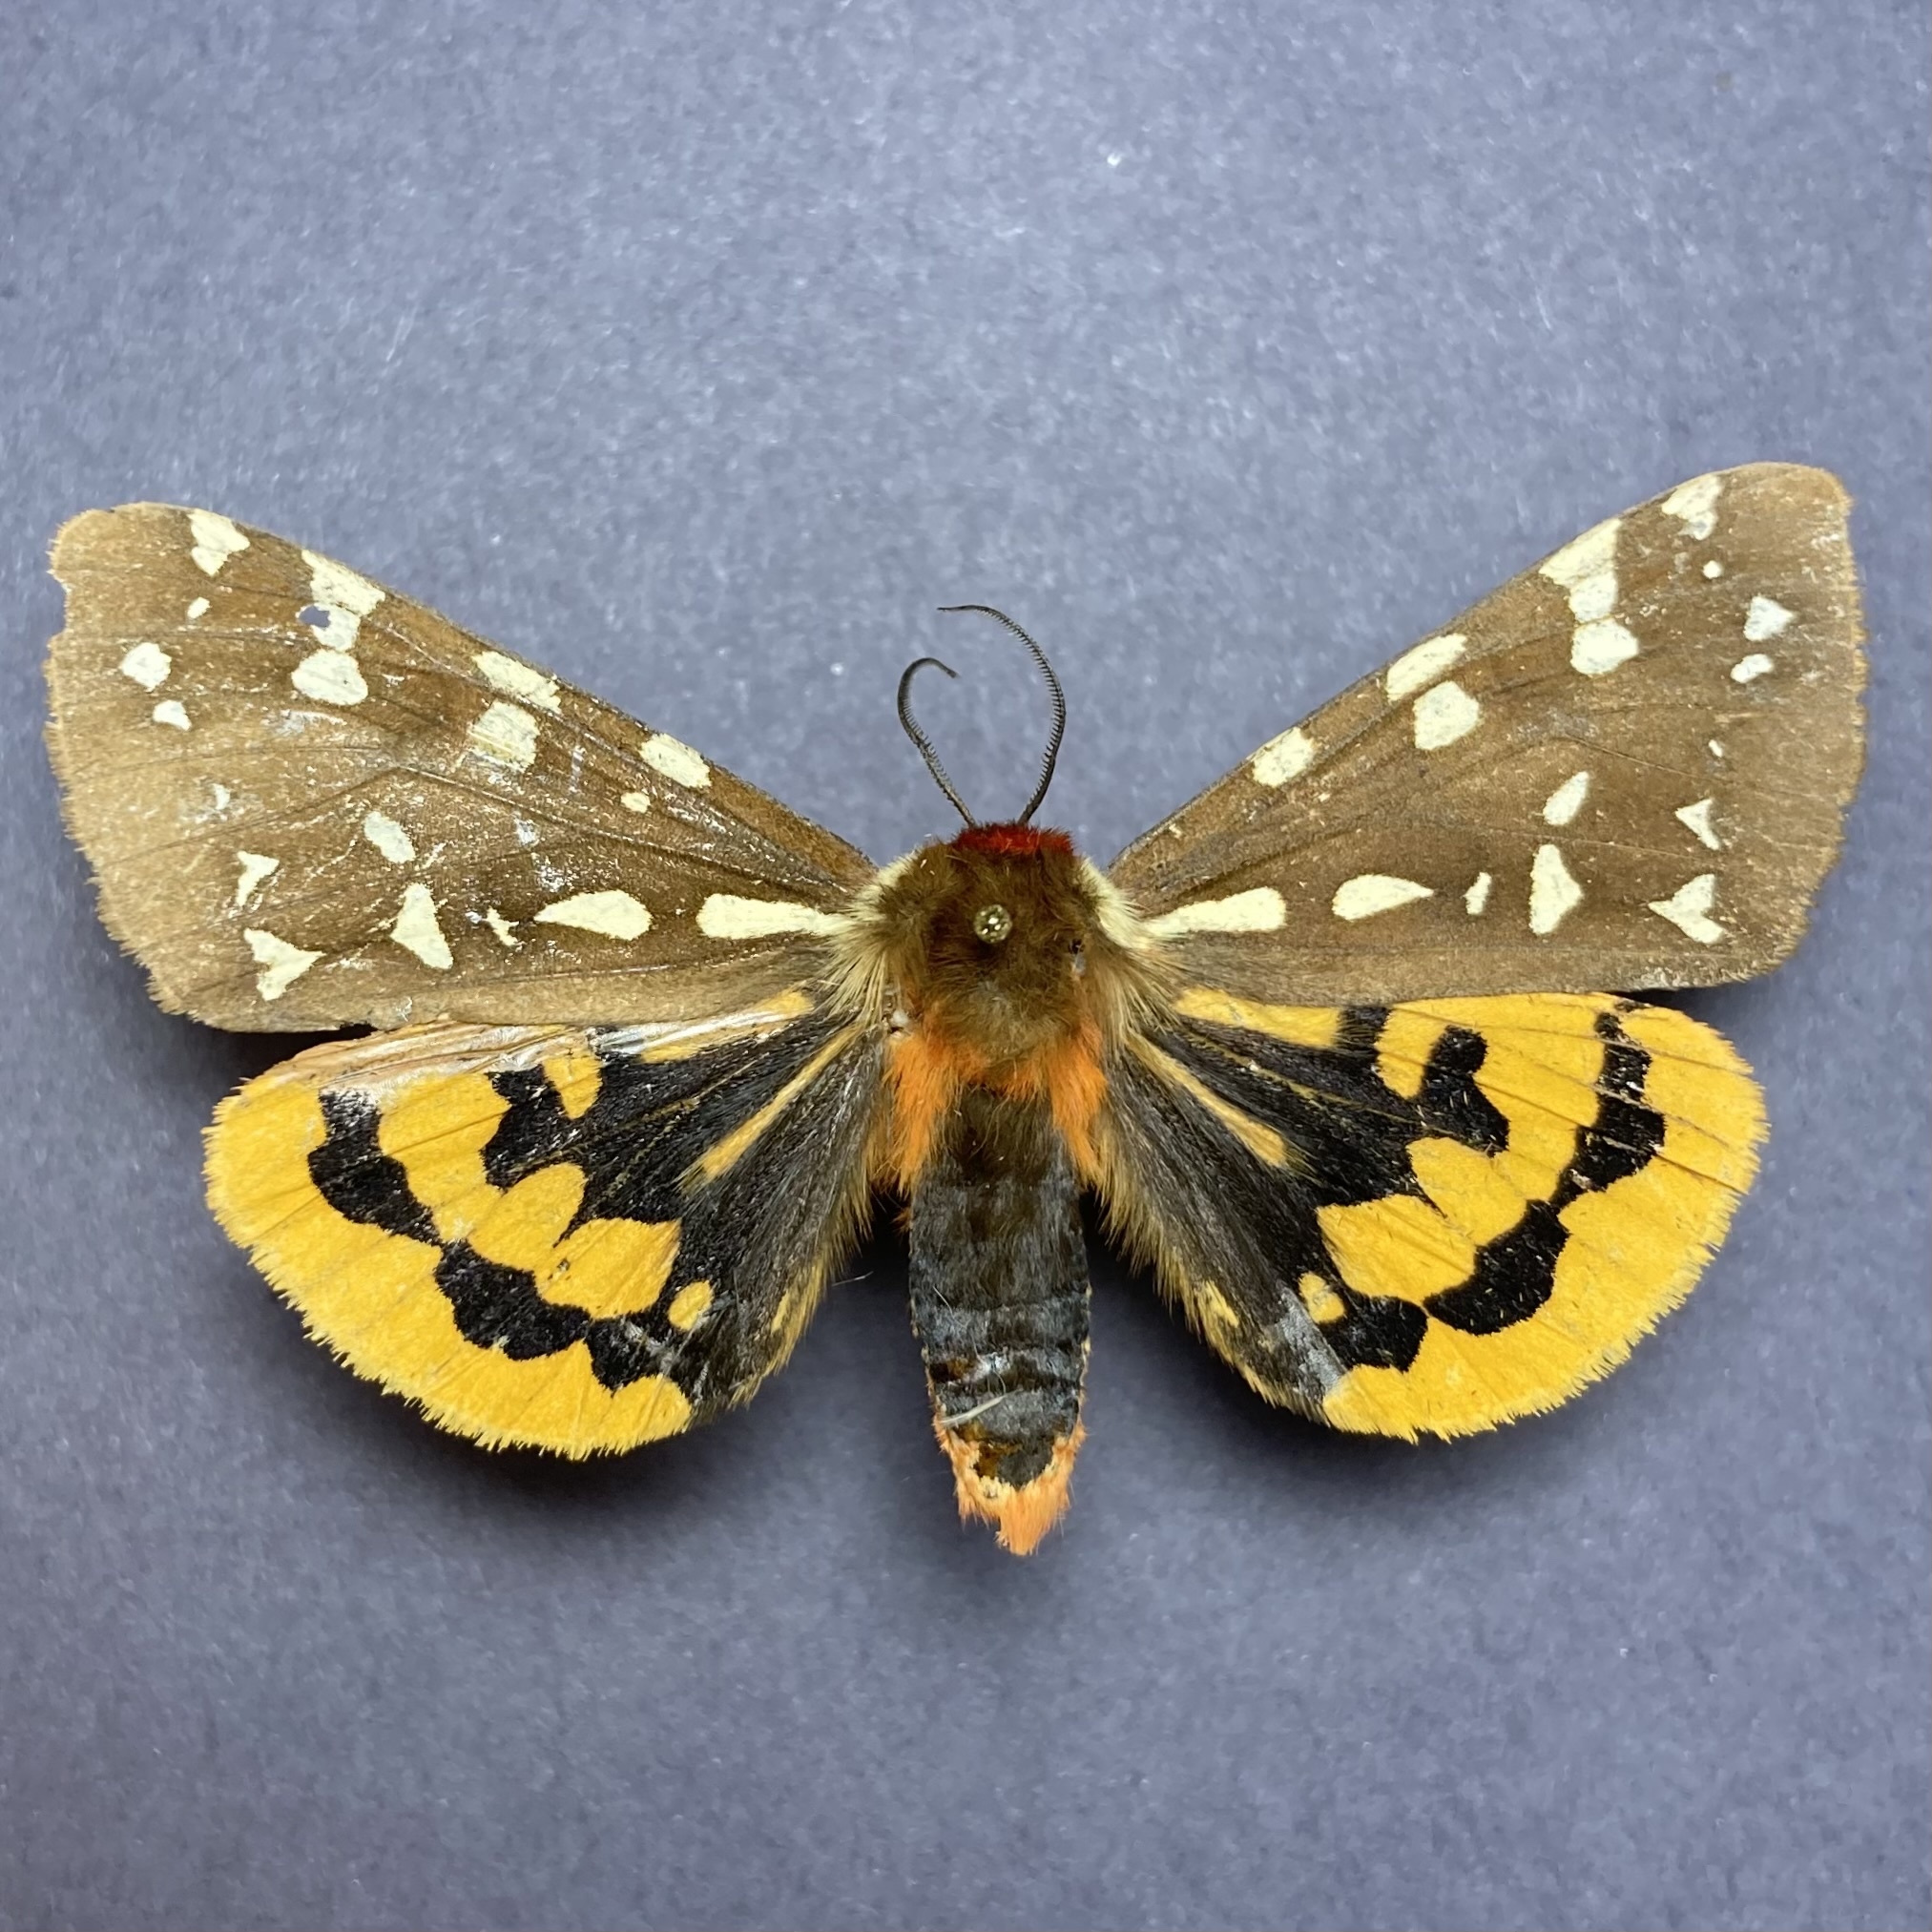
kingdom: Animalia
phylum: Arthropoda
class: Insecta
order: Lepidoptera
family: Erebidae
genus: Arctia
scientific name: Arctia parthenos
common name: St. lawrence tiger moth
